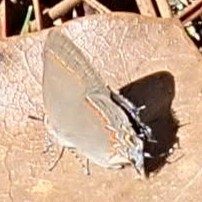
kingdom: Animalia
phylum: Arthropoda
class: Insecta
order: Lepidoptera
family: Lycaenidae
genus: Calycopis
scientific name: Calycopis cecrops
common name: Red-banded hairstreak
